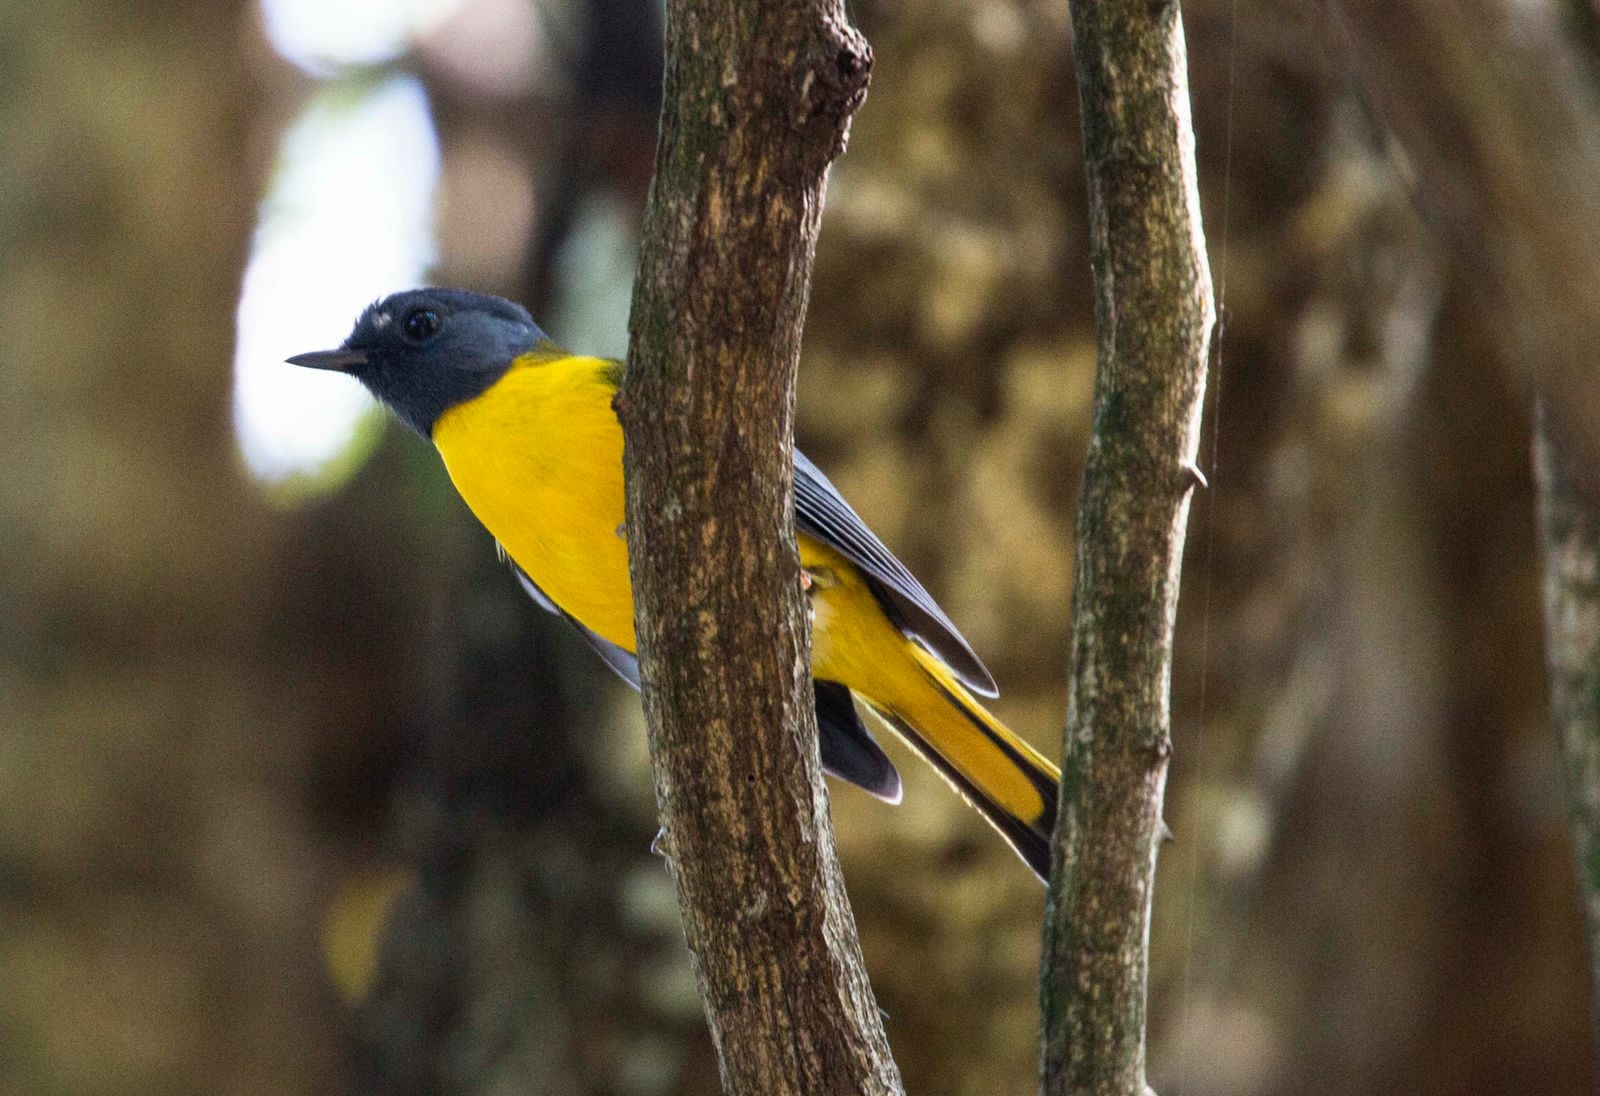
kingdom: Animalia
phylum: Chordata
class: Aves
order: Passeriformes
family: Muscicapidae
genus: Pogonocichla
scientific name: Pogonocichla stellata
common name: White-starred robin
